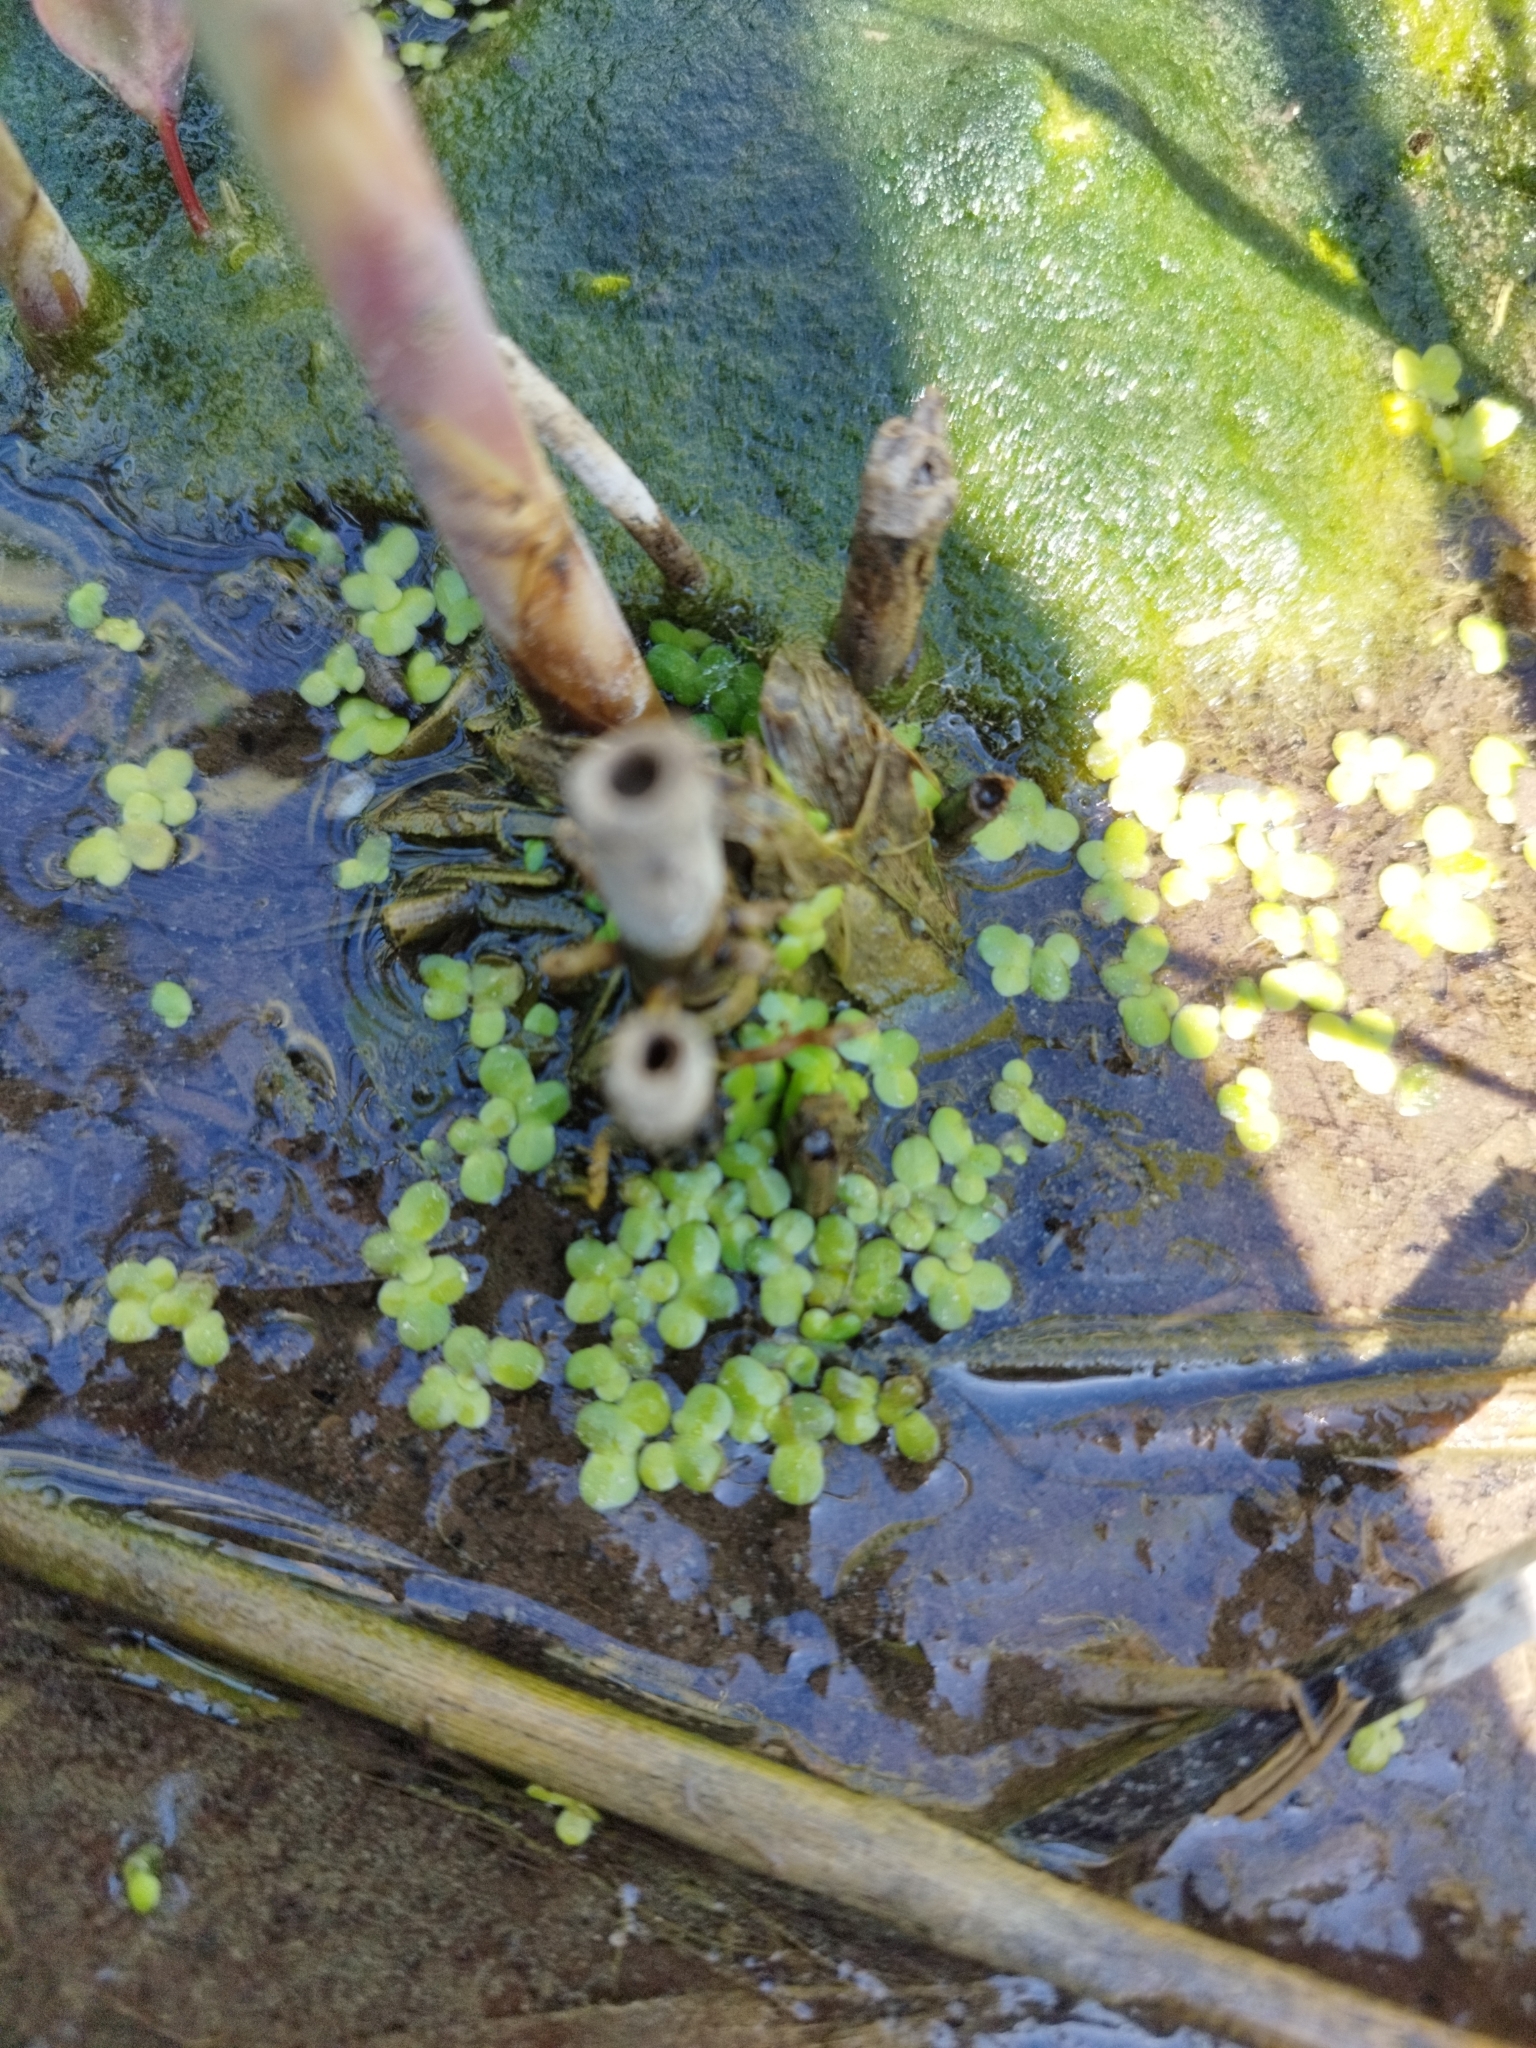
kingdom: Plantae
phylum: Tracheophyta
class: Liliopsida
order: Alismatales
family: Araceae
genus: Lemna
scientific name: Lemna minor
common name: Common duckweed
